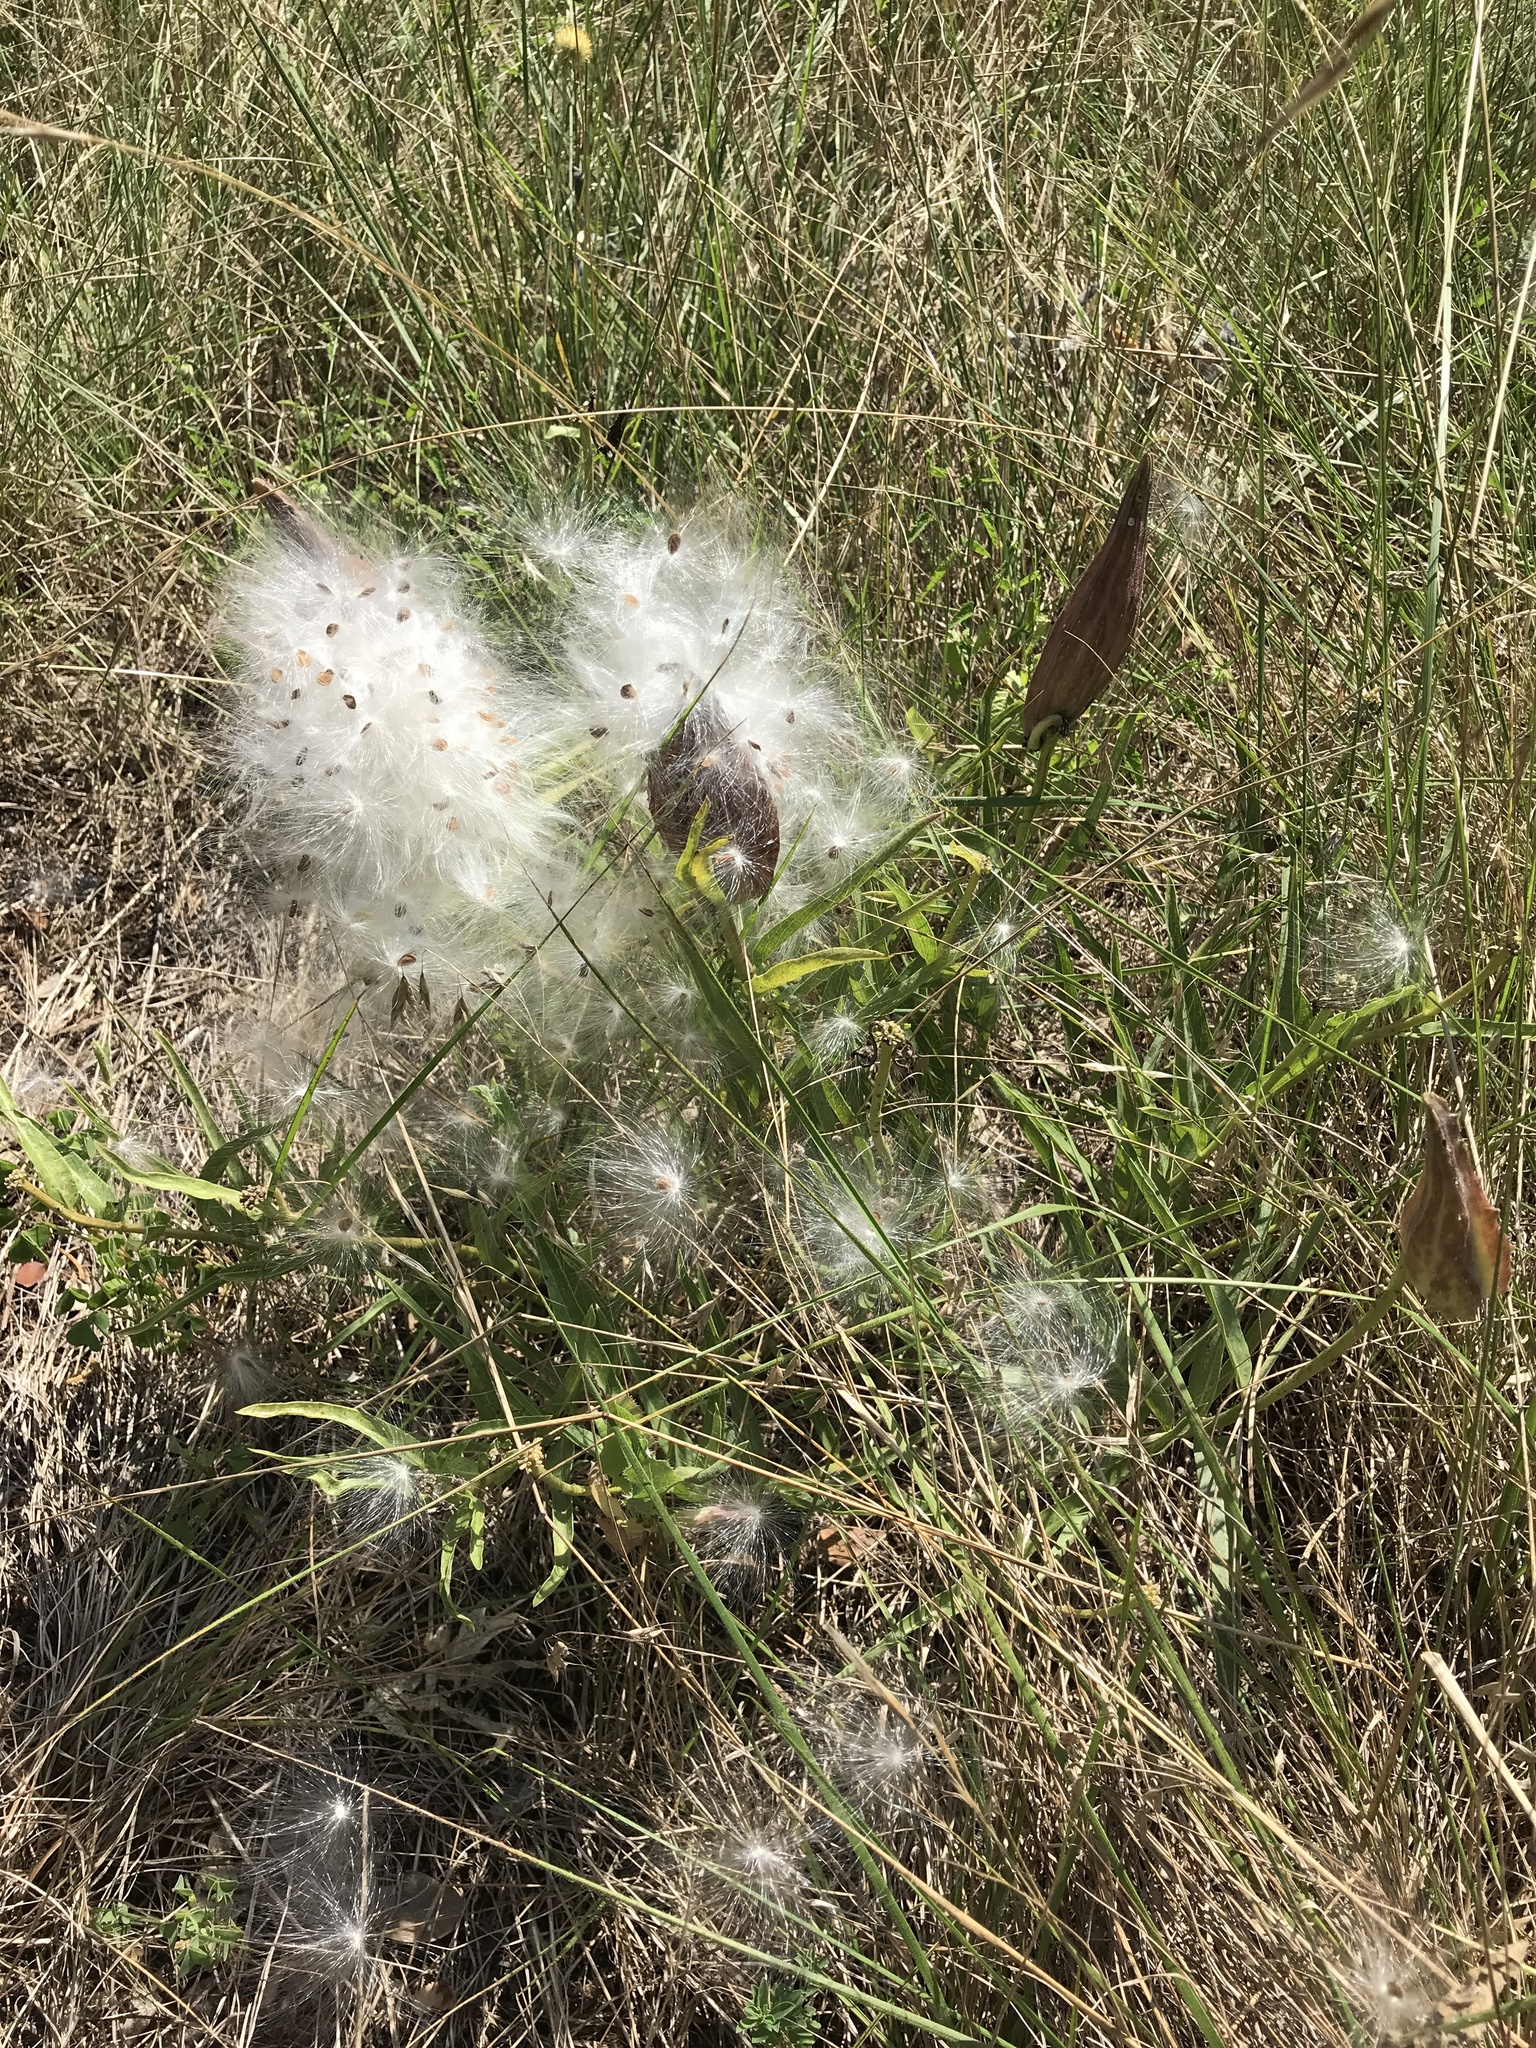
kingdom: Plantae
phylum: Tracheophyta
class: Magnoliopsida
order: Gentianales
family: Apocynaceae
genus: Asclepias
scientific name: Asclepias asperula
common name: Antelope horns
